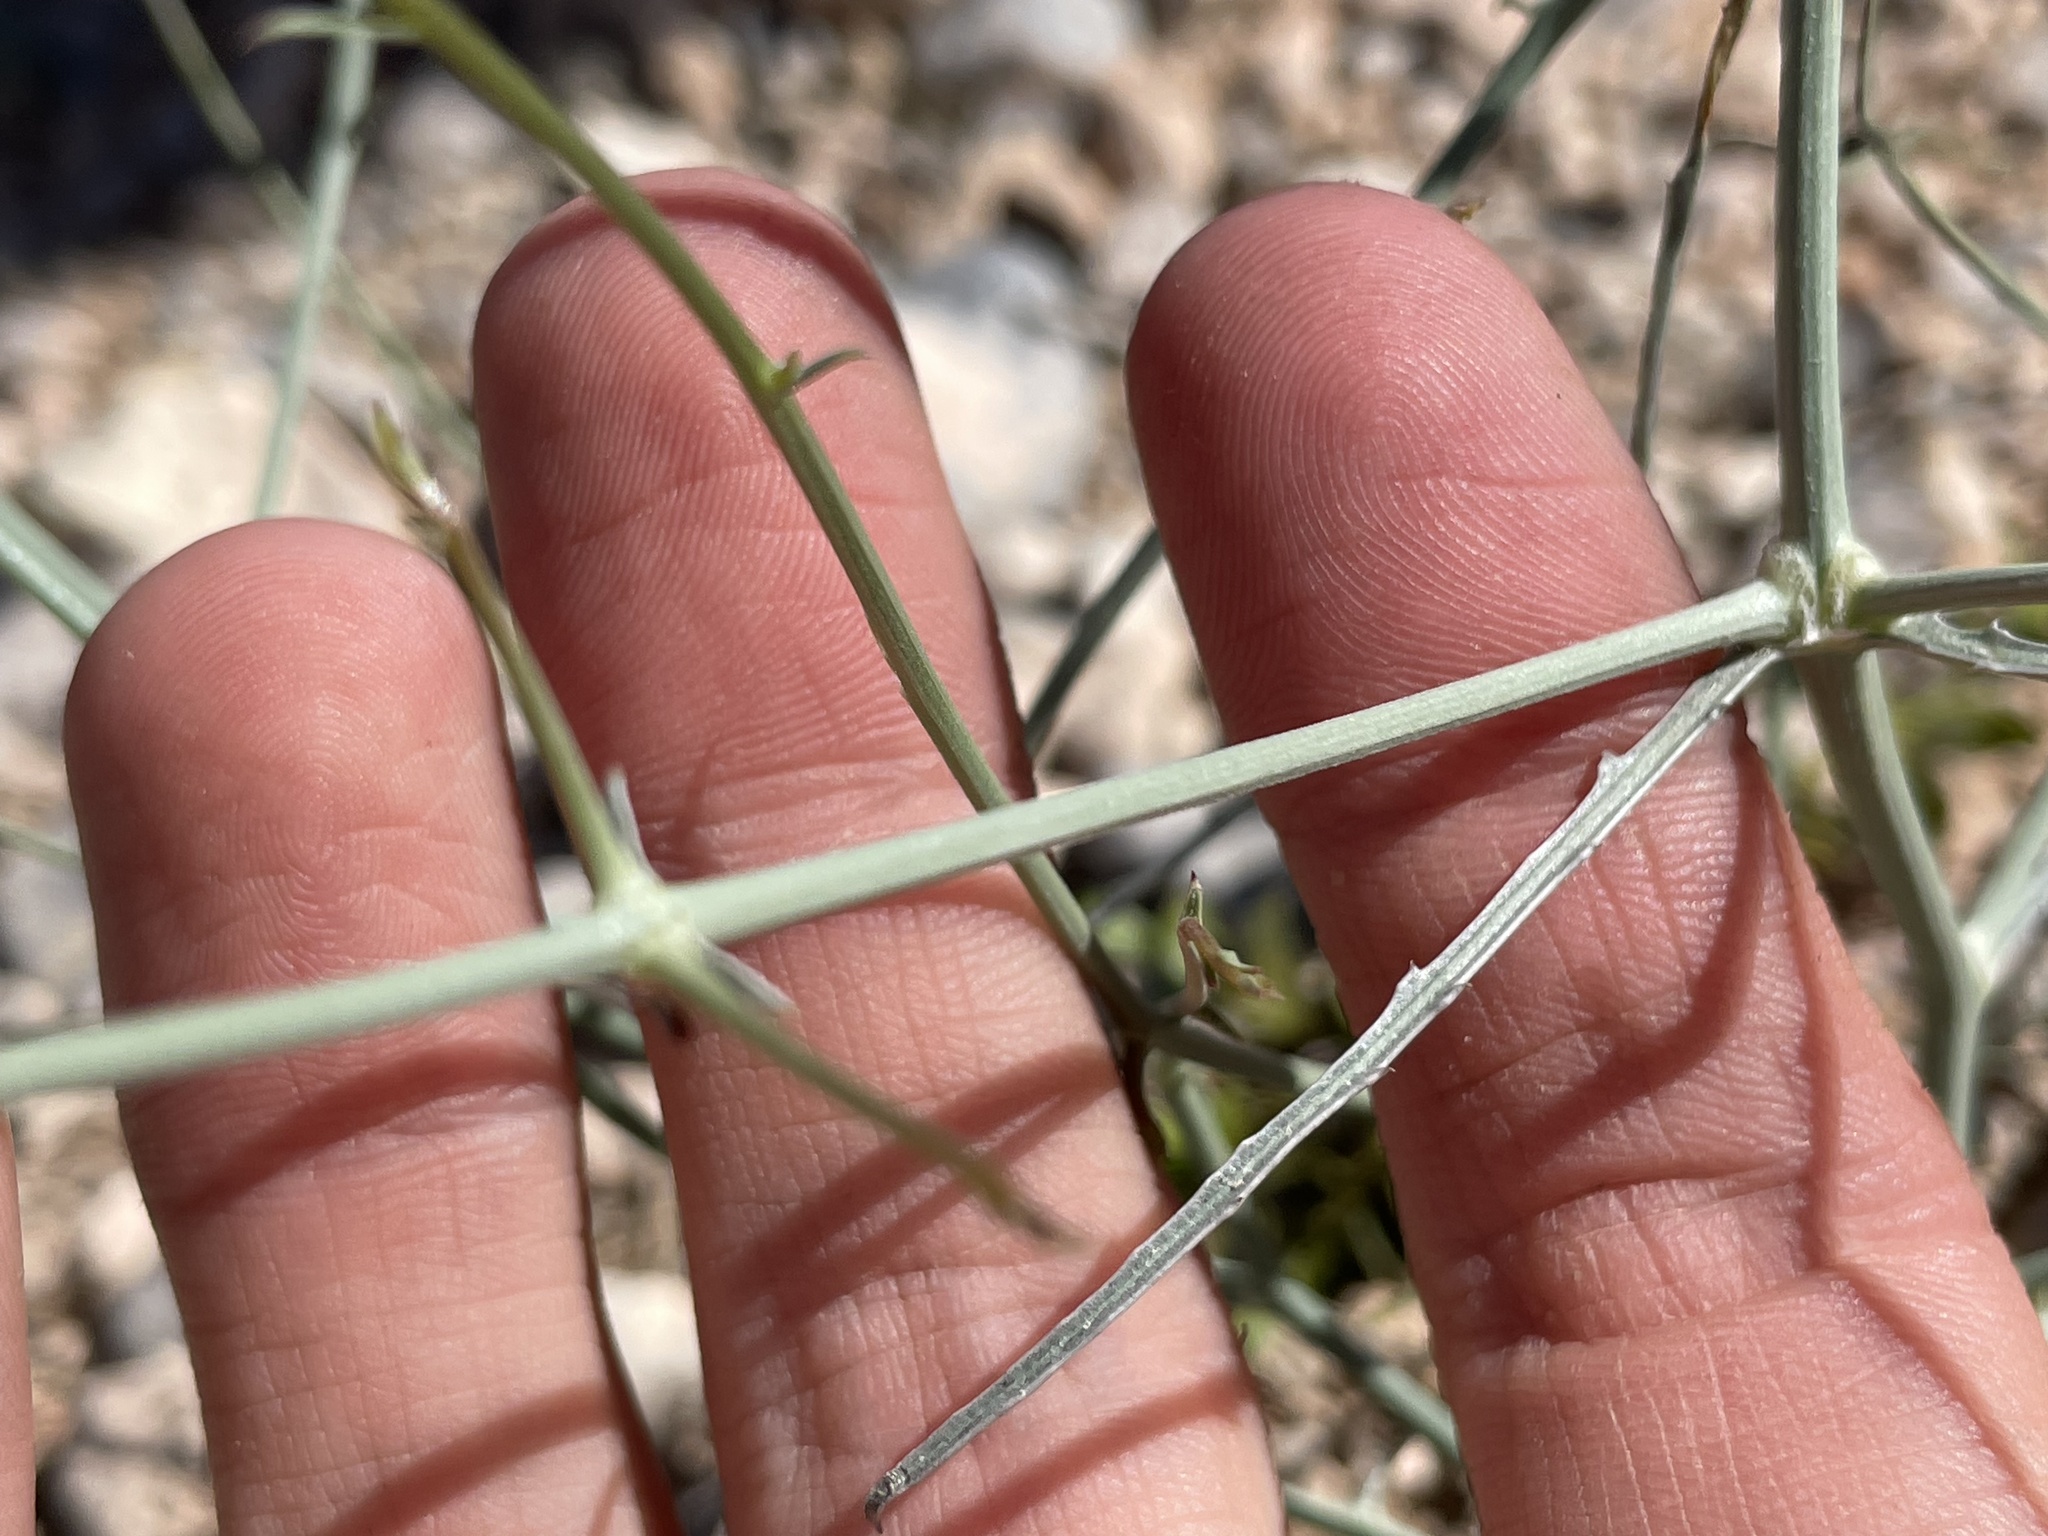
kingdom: Plantae
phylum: Tracheophyta
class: Magnoliopsida
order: Asterales
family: Asteraceae
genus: Stephanomeria
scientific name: Stephanomeria pauciflora
